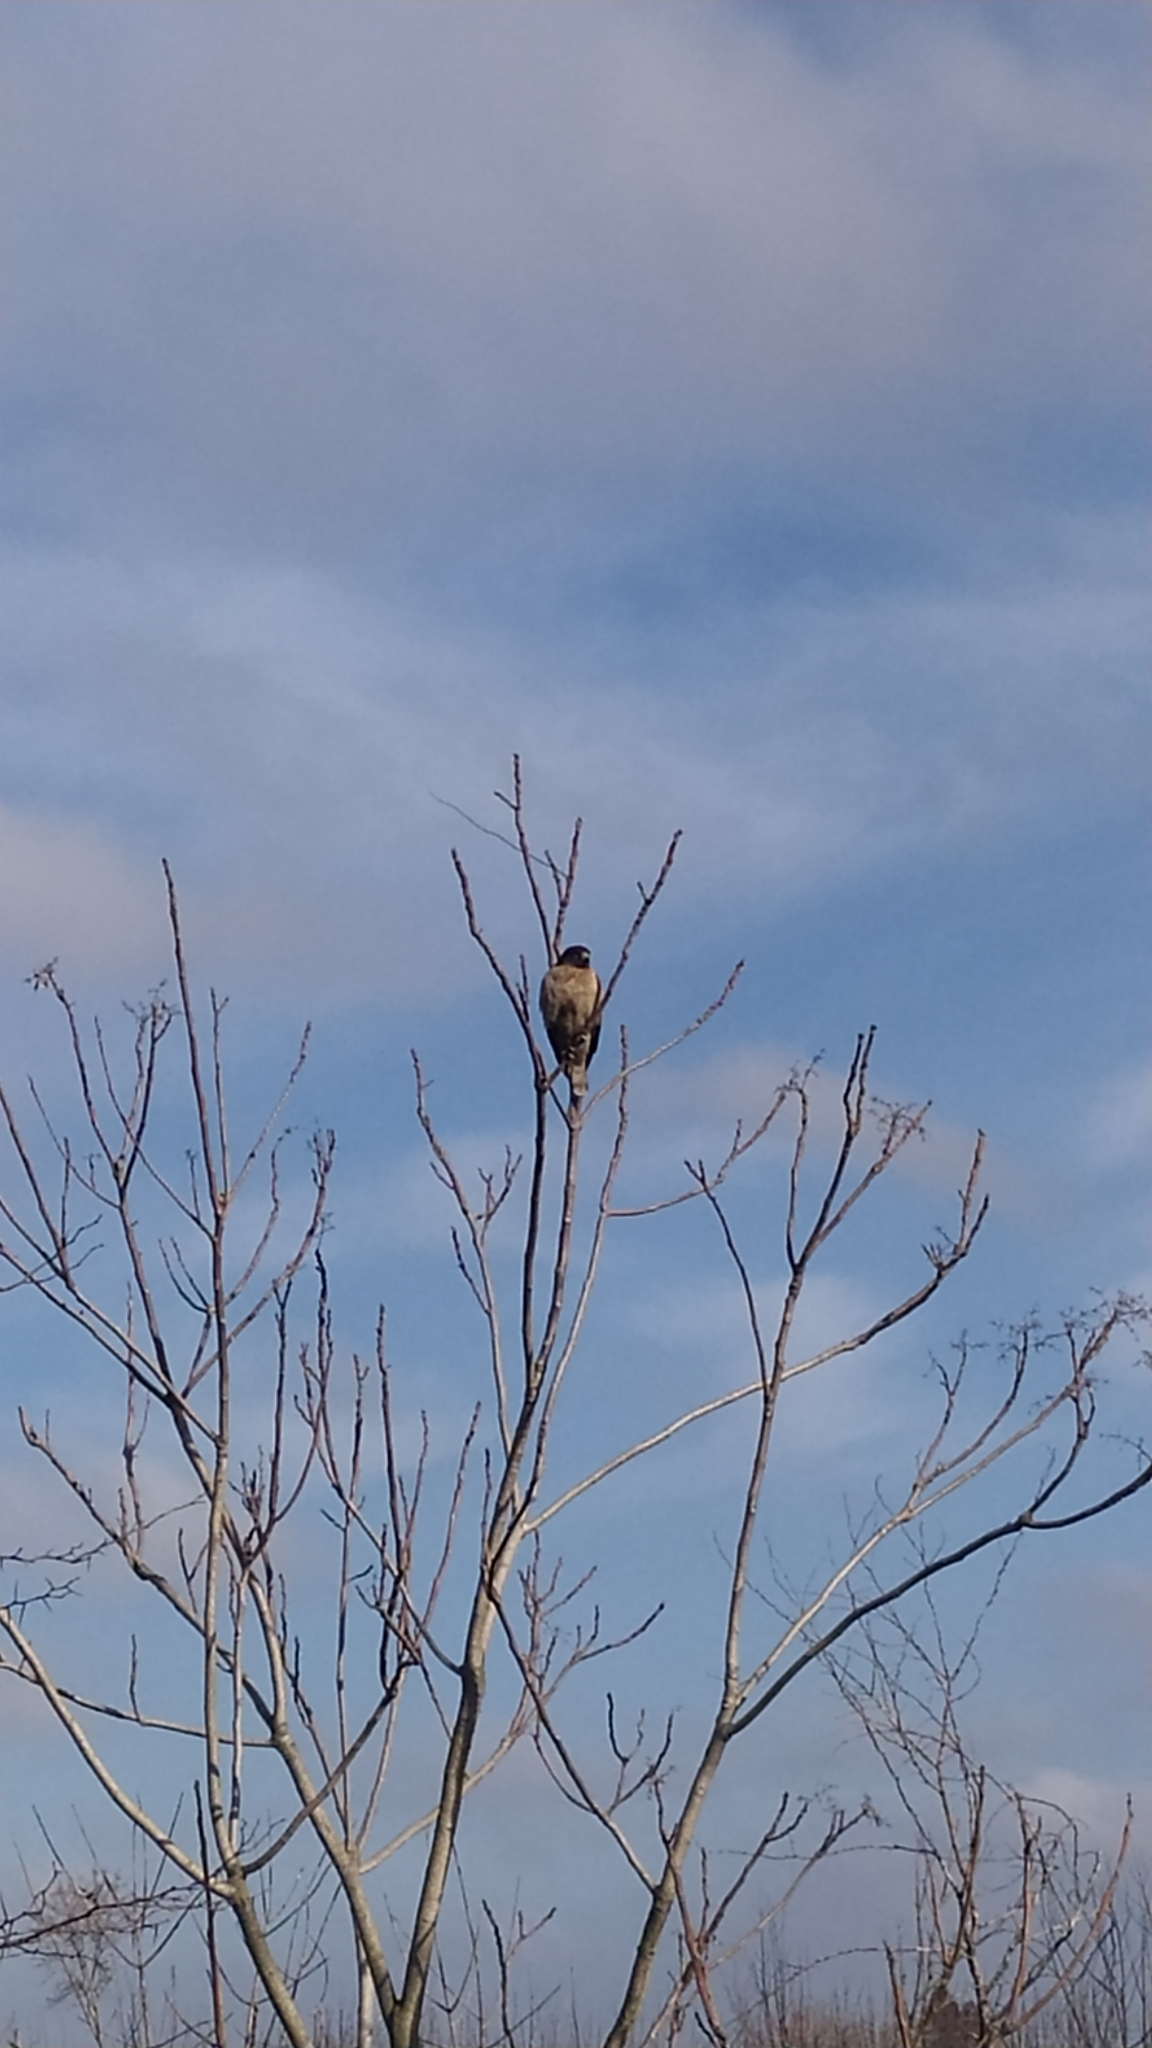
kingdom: Animalia
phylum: Chordata
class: Aves
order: Accipitriformes
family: Accipitridae
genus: Rupornis
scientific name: Rupornis magnirostris
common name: Roadside hawk
